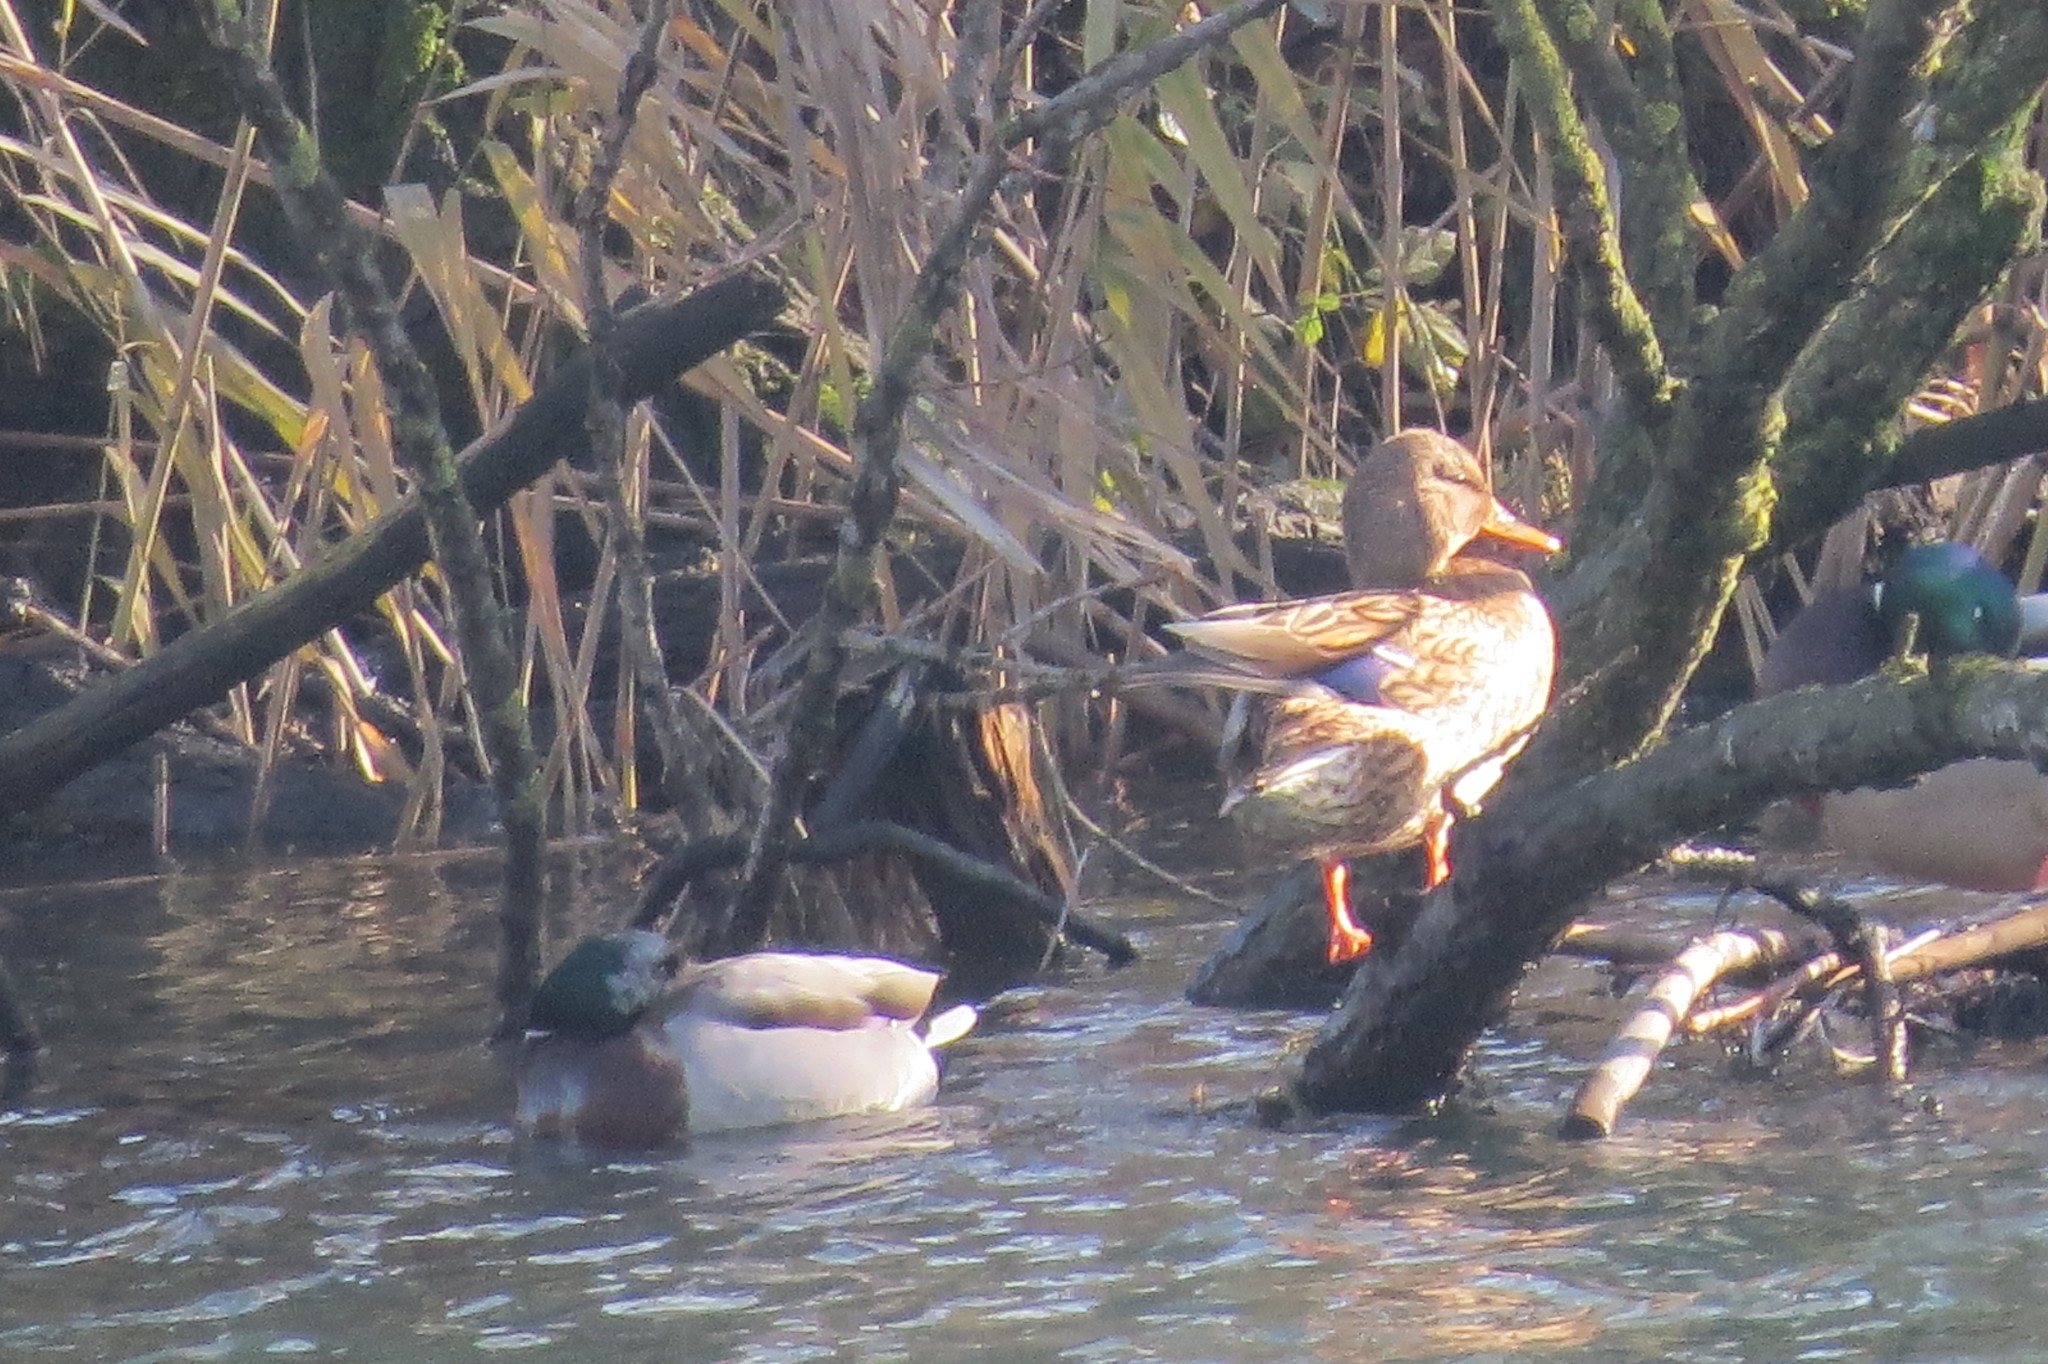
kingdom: Animalia
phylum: Chordata
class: Aves
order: Anseriformes
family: Anatidae
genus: Anas
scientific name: Anas platyrhynchos
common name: Mallard
